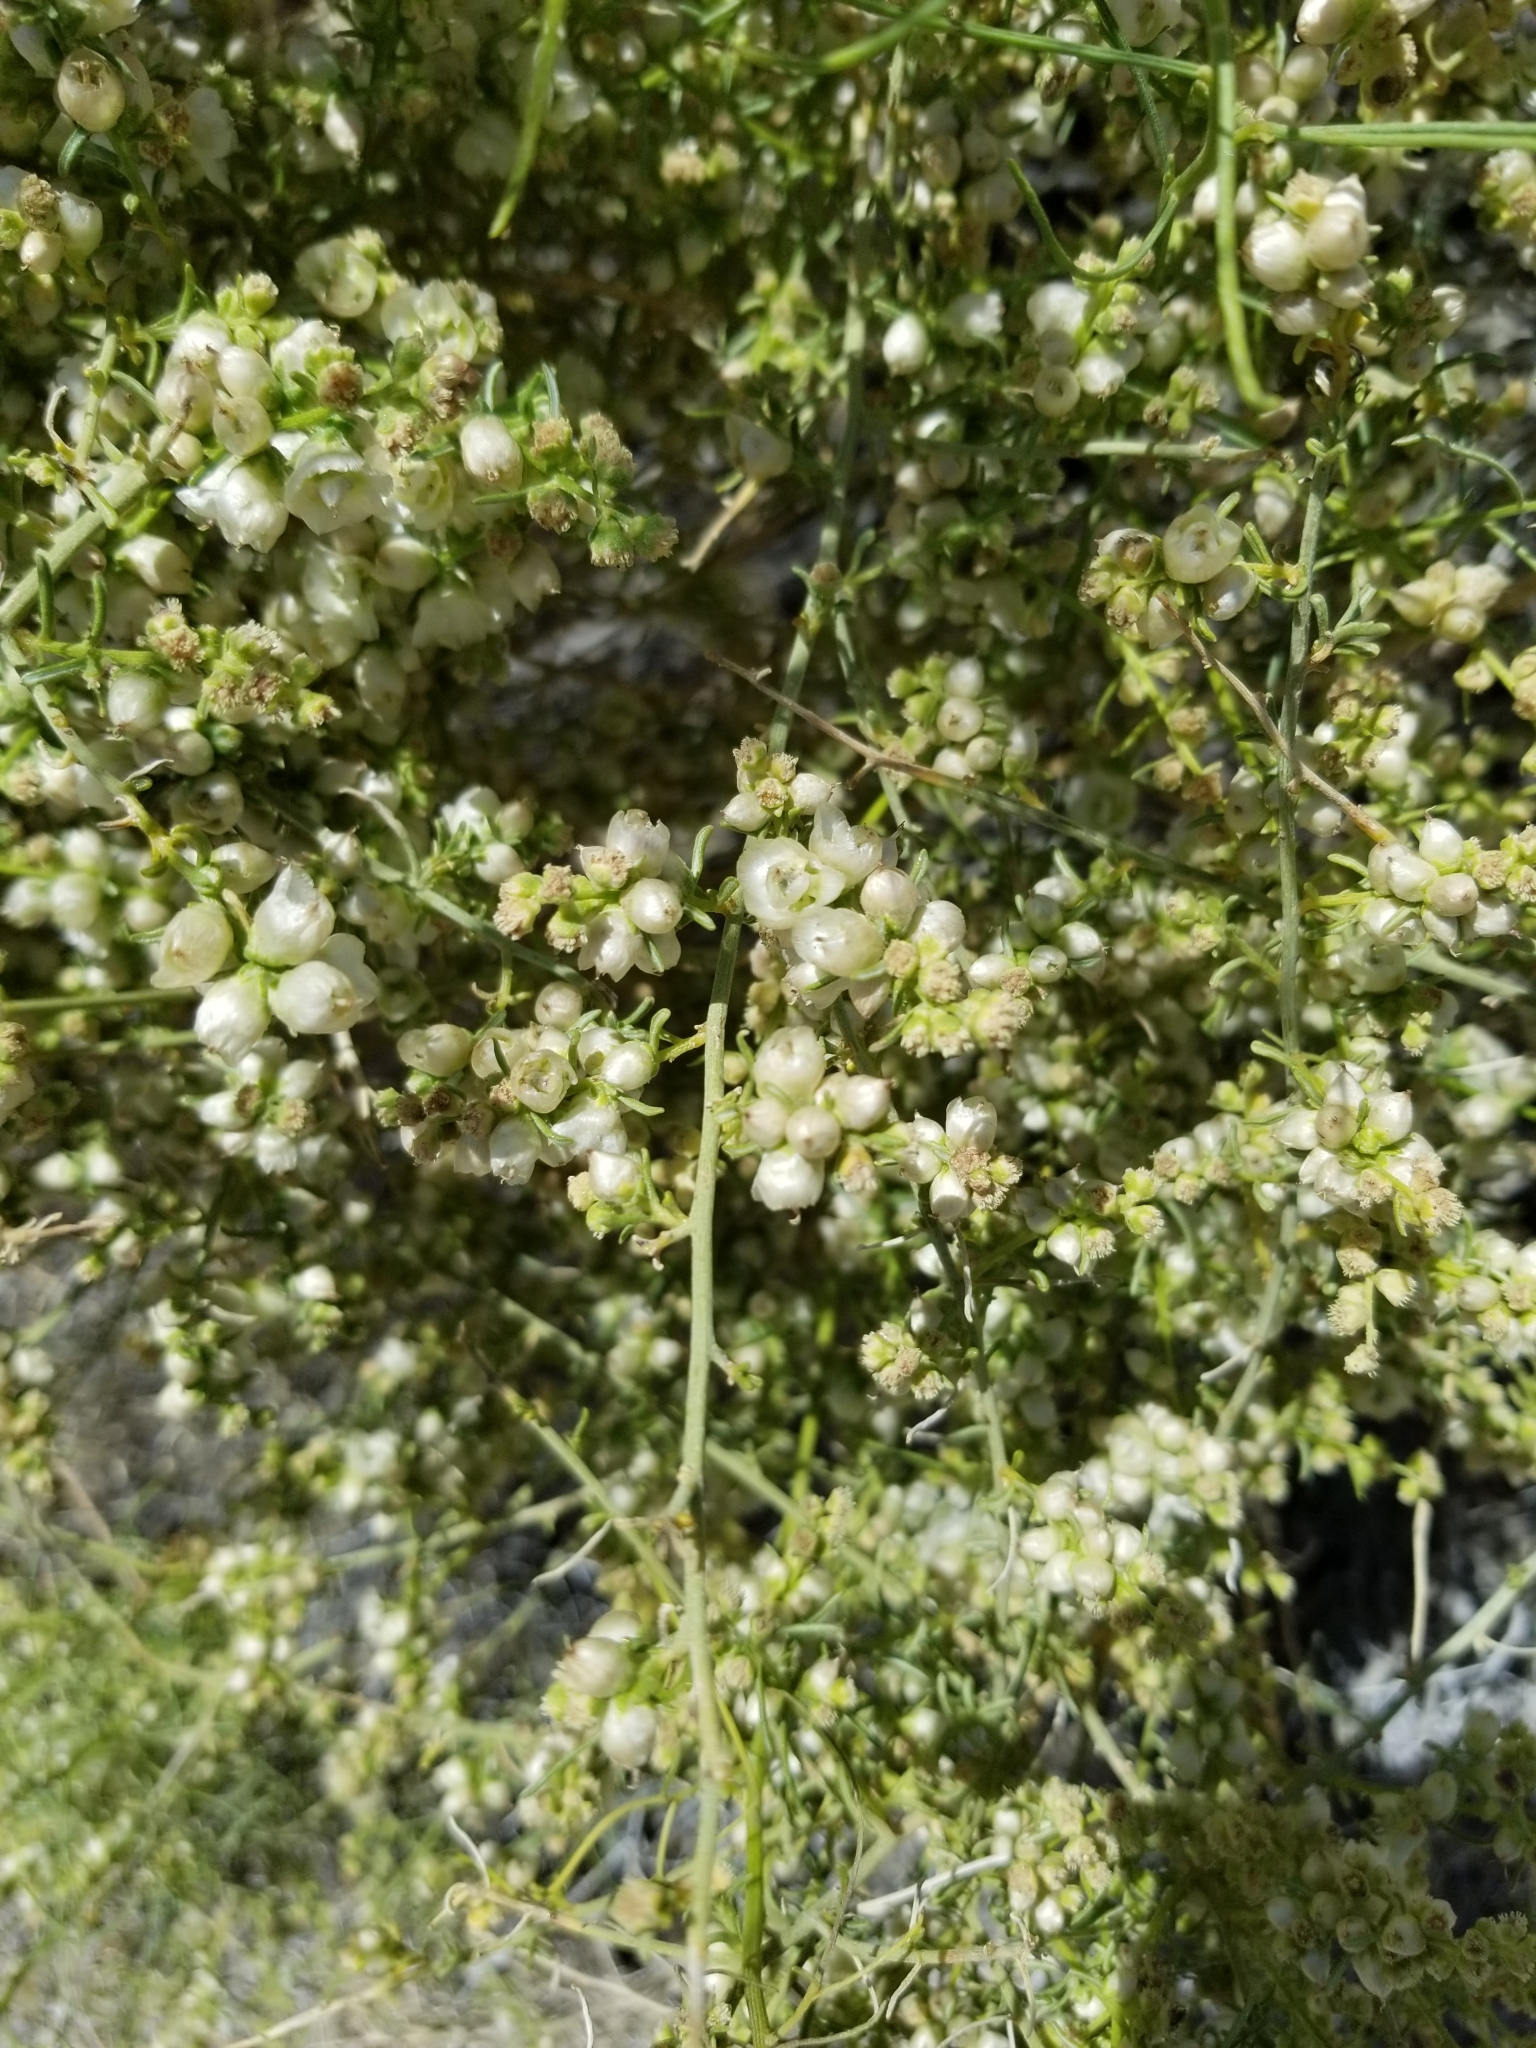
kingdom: Plantae
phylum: Tracheophyta
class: Magnoliopsida
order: Asterales
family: Asteraceae
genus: Ambrosia
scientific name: Ambrosia salsola
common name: Burrobrush
